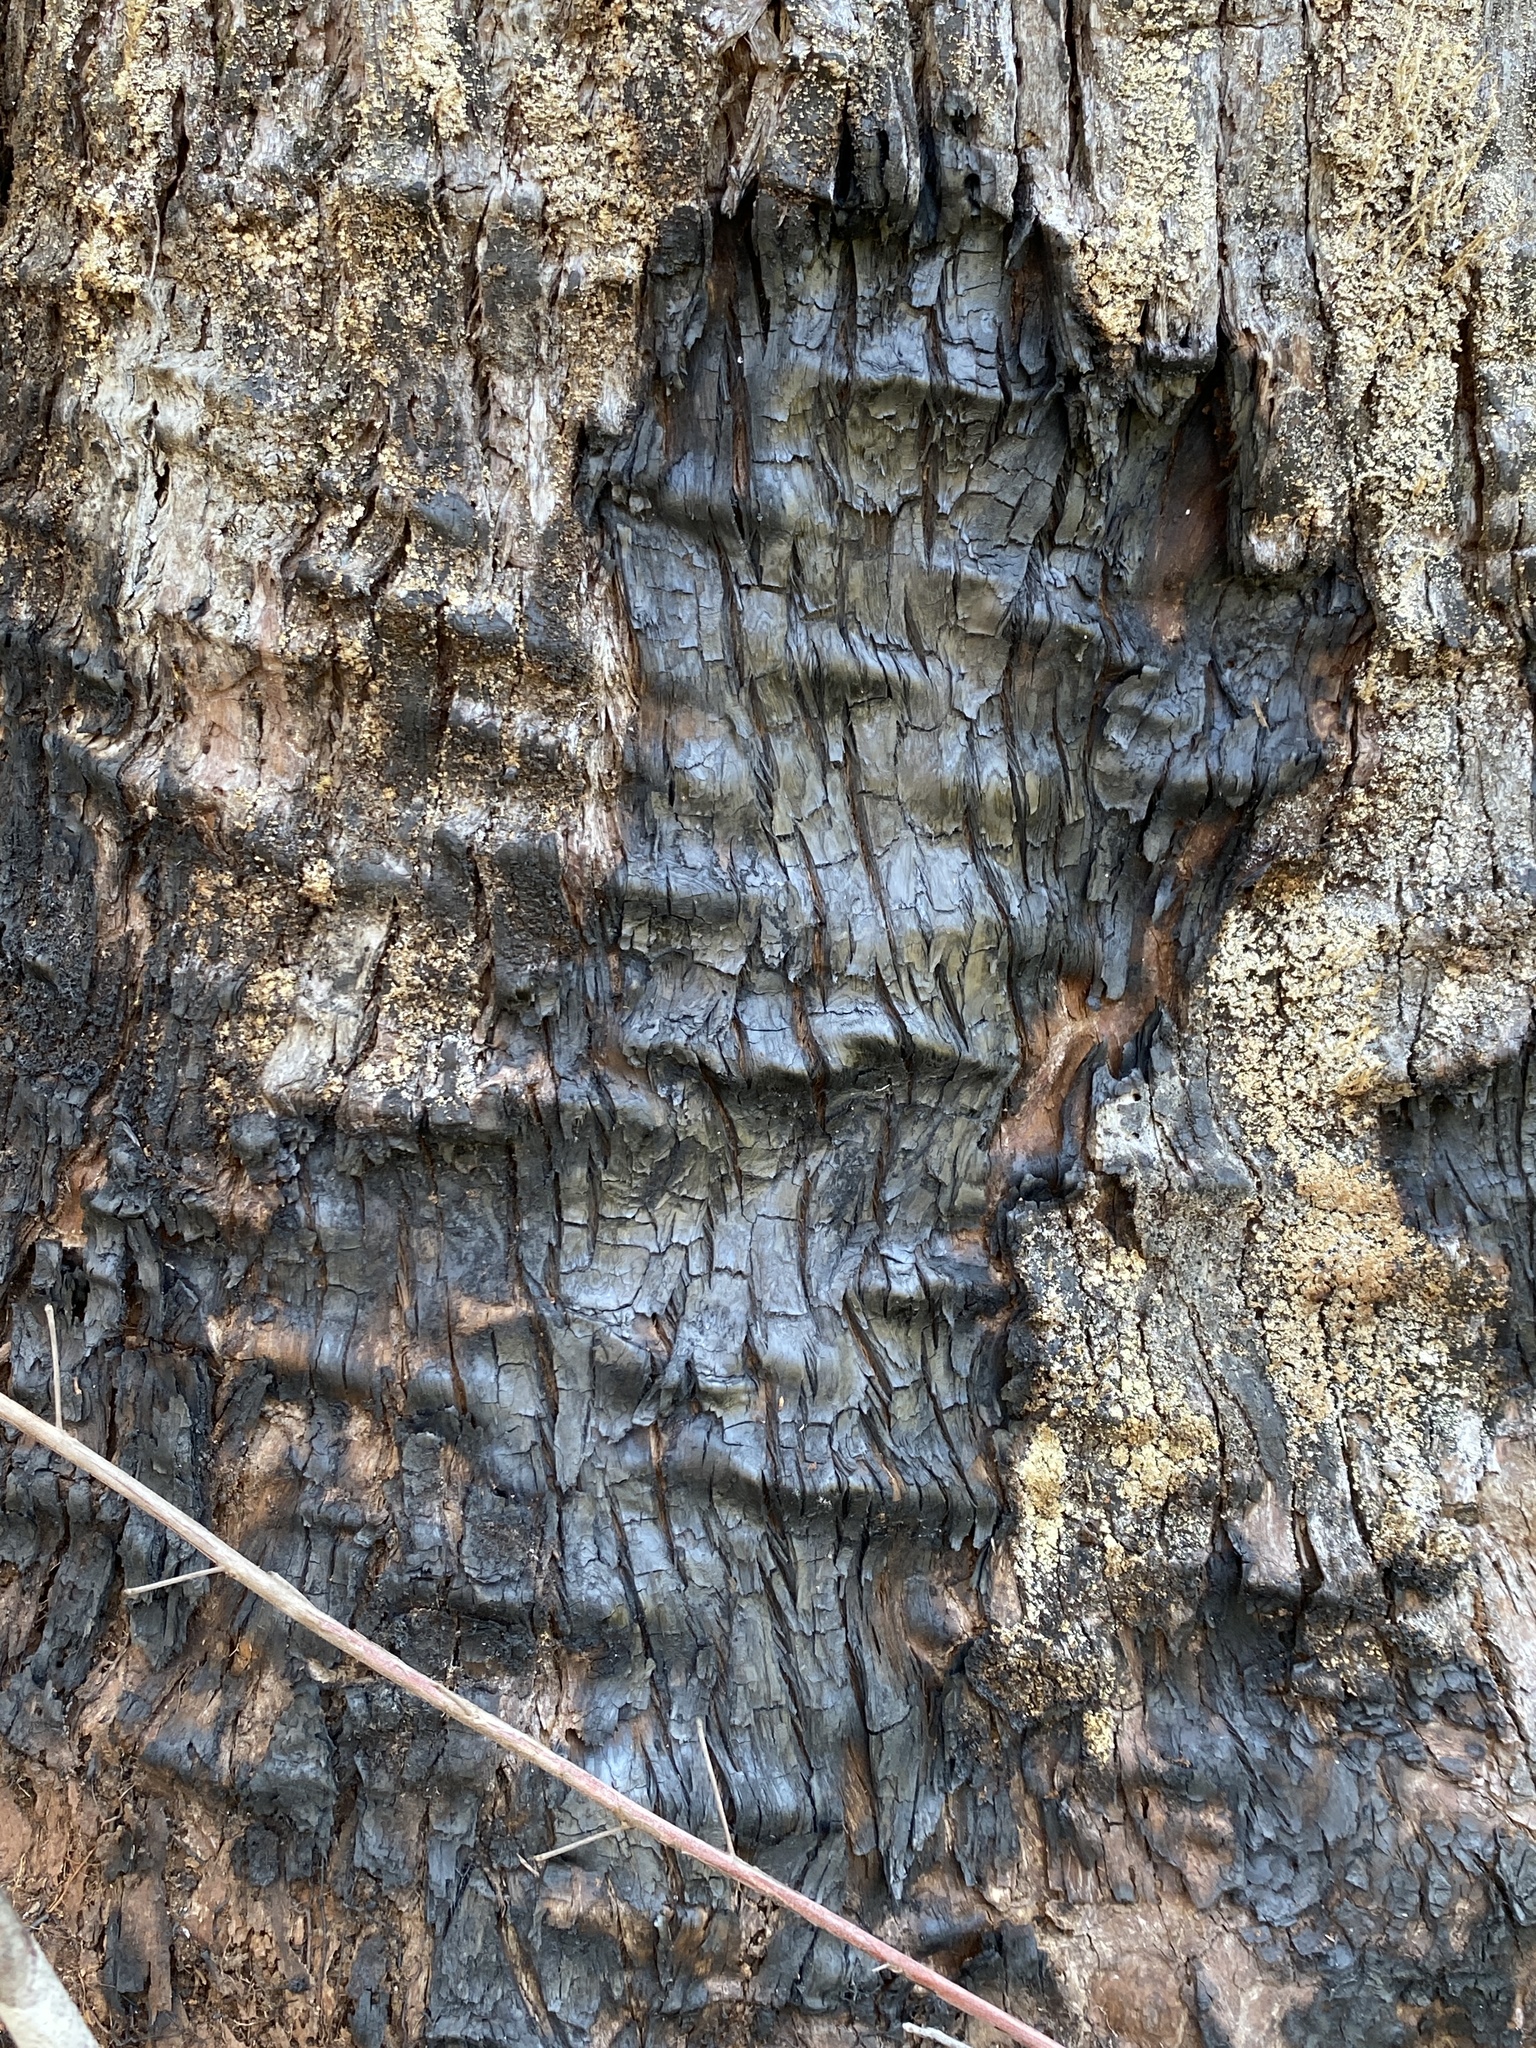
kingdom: Plantae
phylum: Tracheophyta
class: Pinopsida
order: Pinales
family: Cupressaceae
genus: Taxodium
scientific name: Taxodium distichum
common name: Bald cypress
